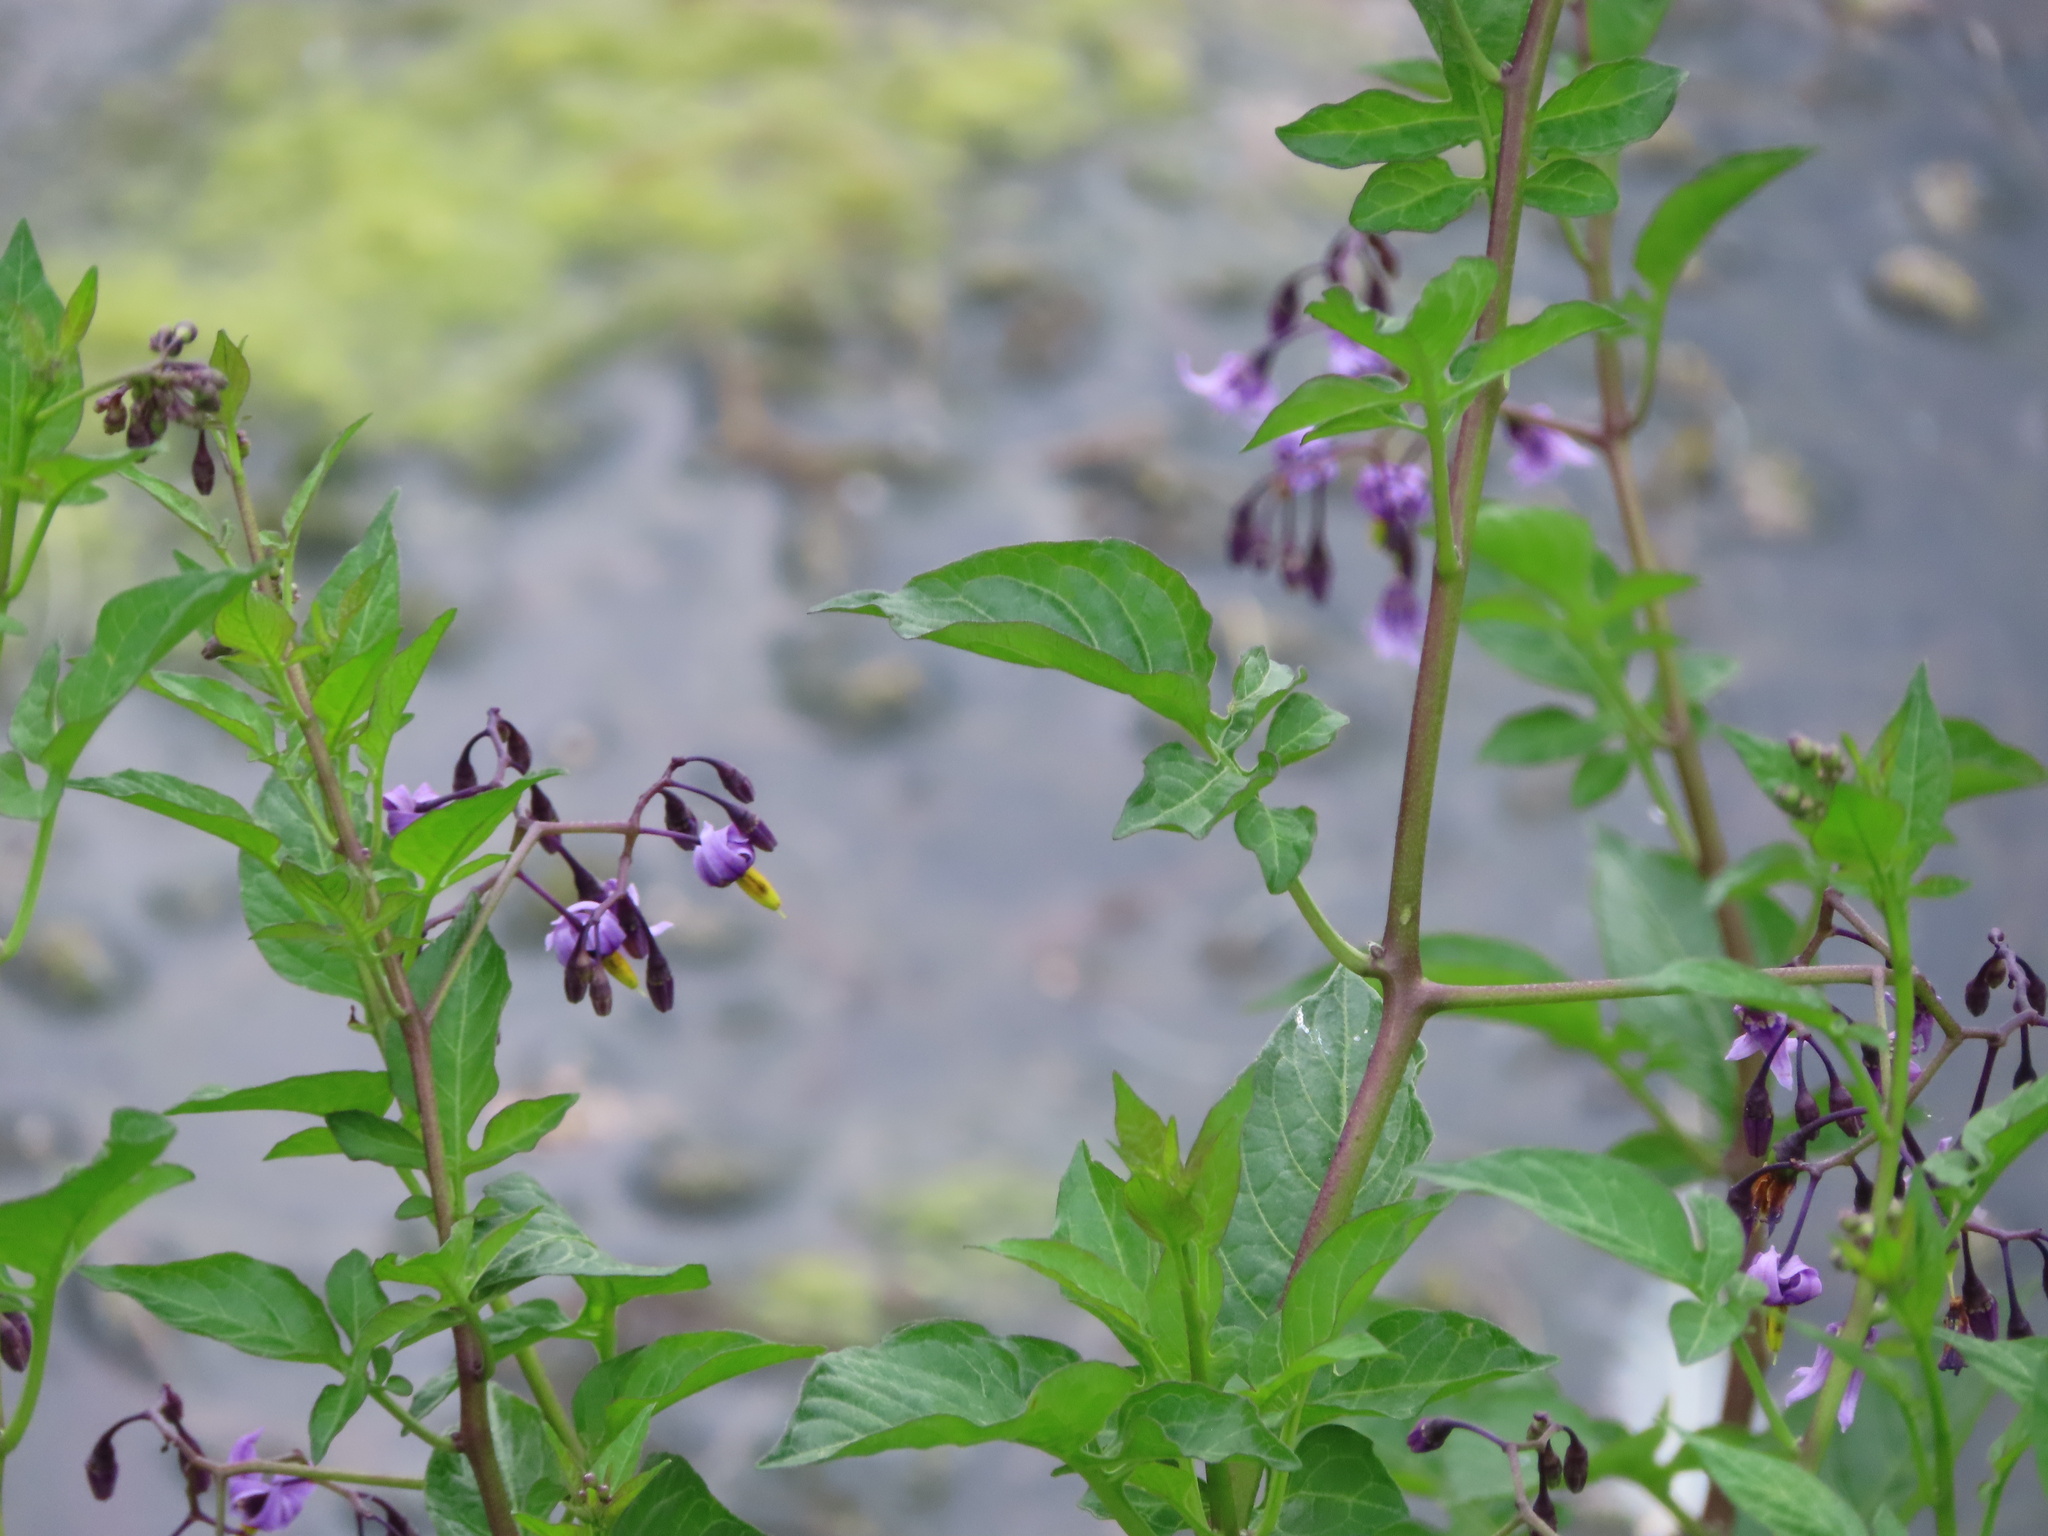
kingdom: Plantae
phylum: Tracheophyta
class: Magnoliopsida
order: Solanales
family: Solanaceae
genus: Solanum
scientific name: Solanum dulcamara
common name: Climbing nightshade
